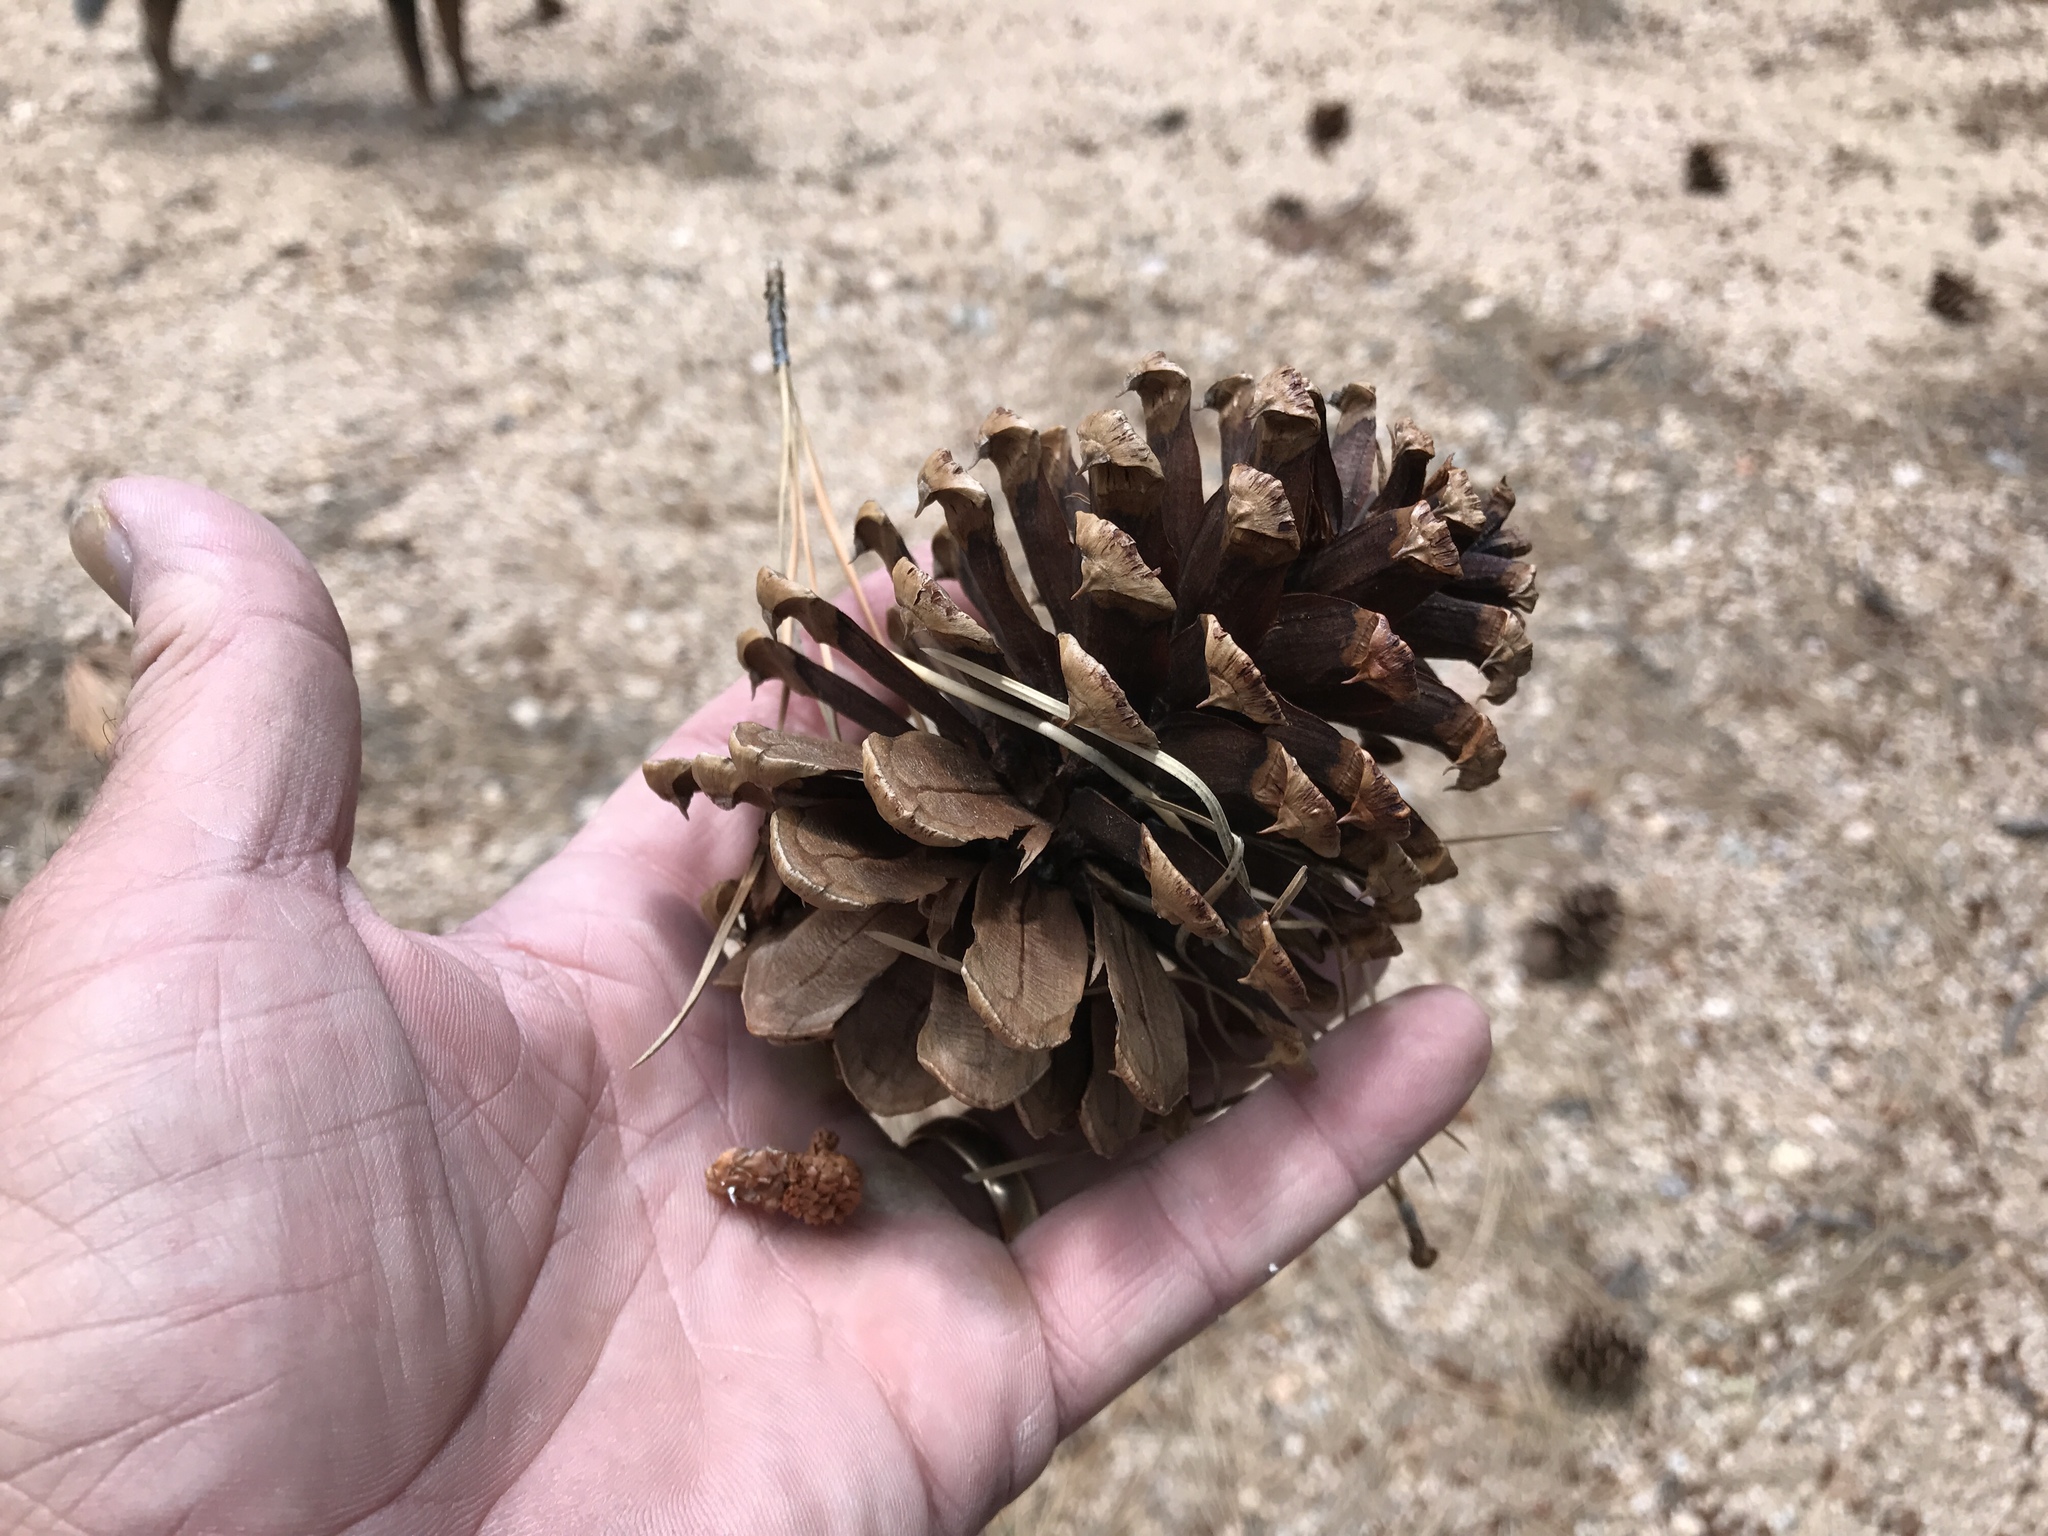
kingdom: Plantae
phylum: Tracheophyta
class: Pinopsida
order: Pinales
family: Pinaceae
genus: Pinus
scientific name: Pinus ponderosa
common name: Western yellow-pine
